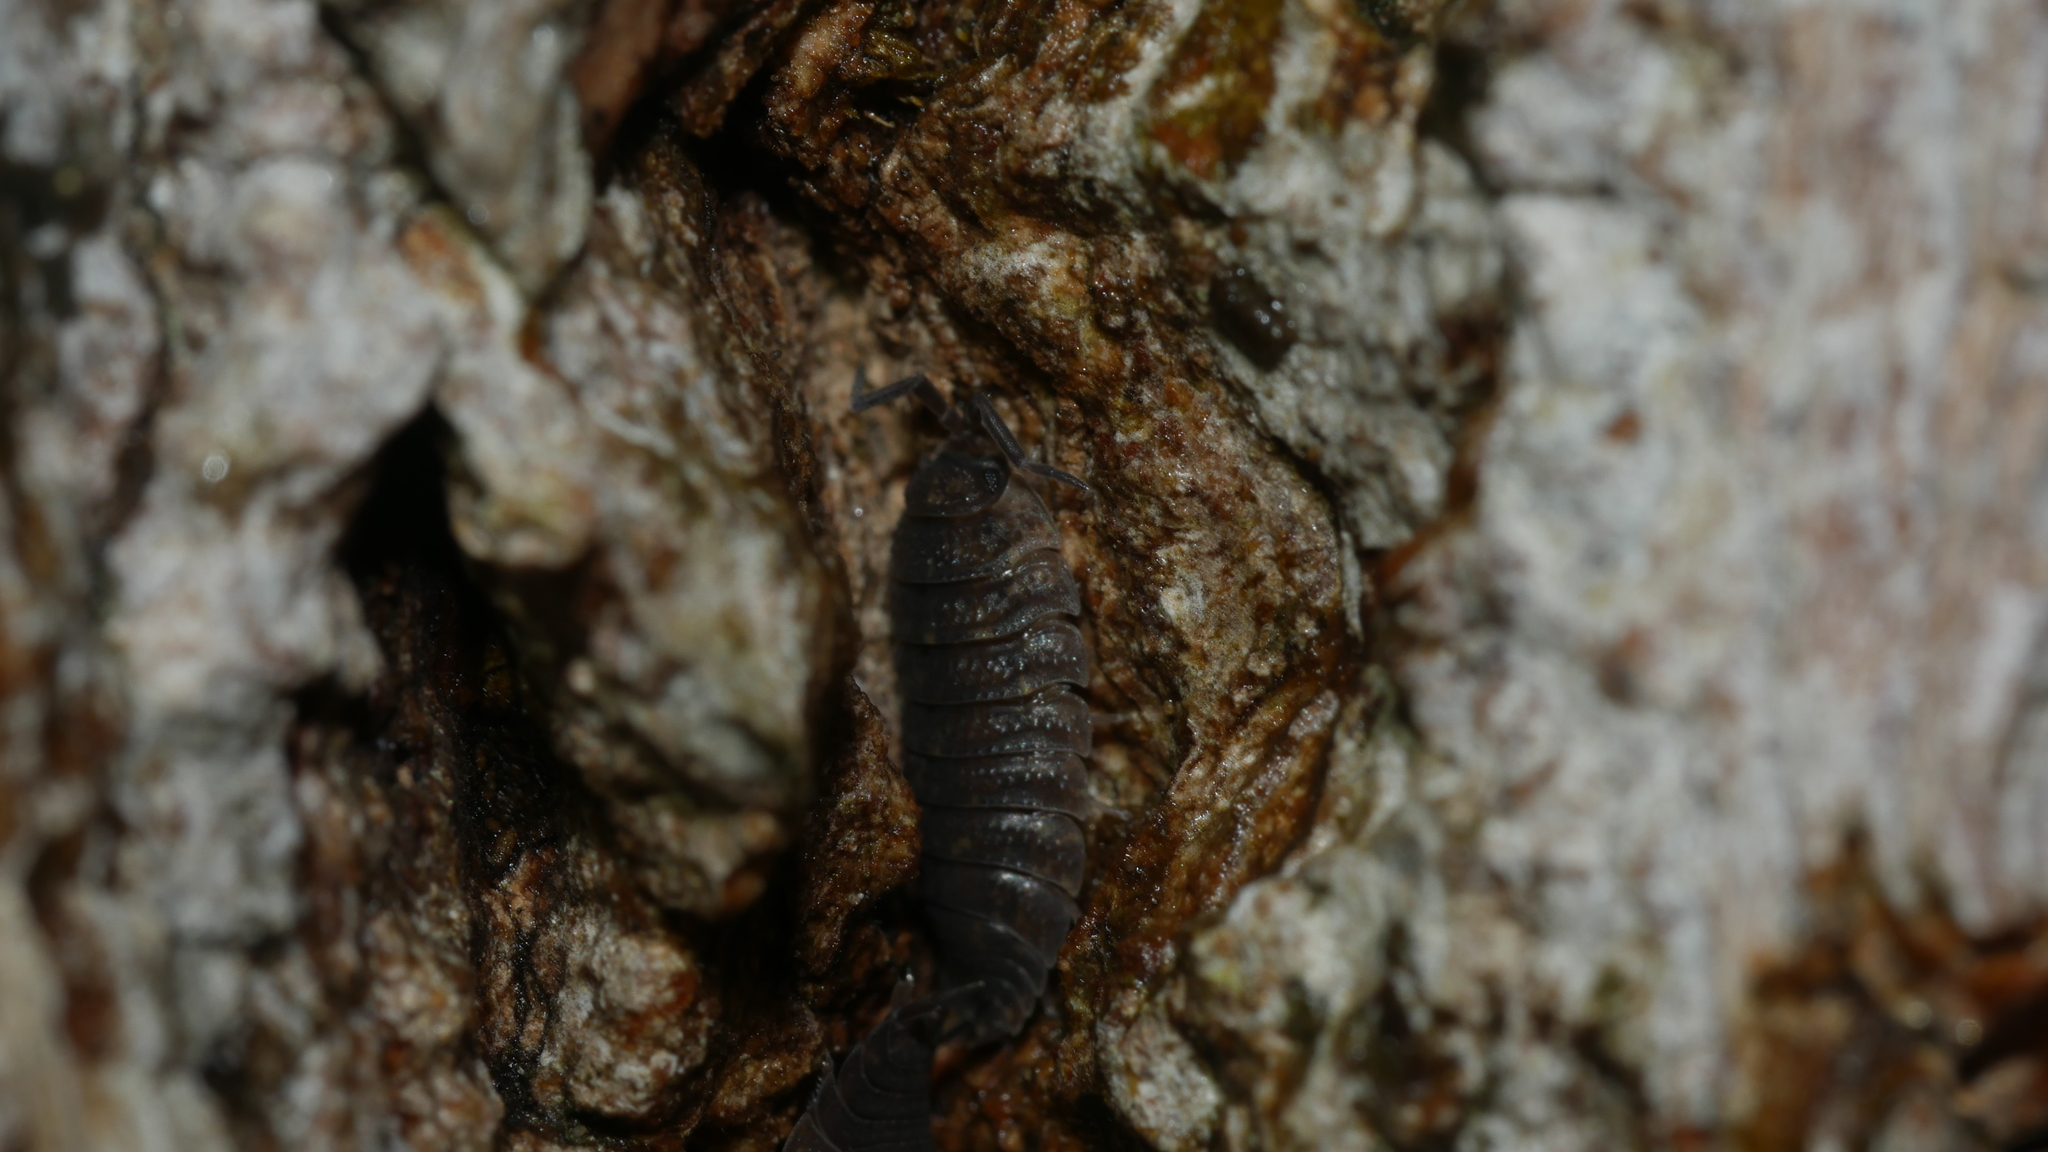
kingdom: Animalia
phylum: Arthropoda
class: Malacostraca
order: Isopoda
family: Porcellionidae
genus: Porcellio
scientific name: Porcellio scaber
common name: Common rough woodlouse
